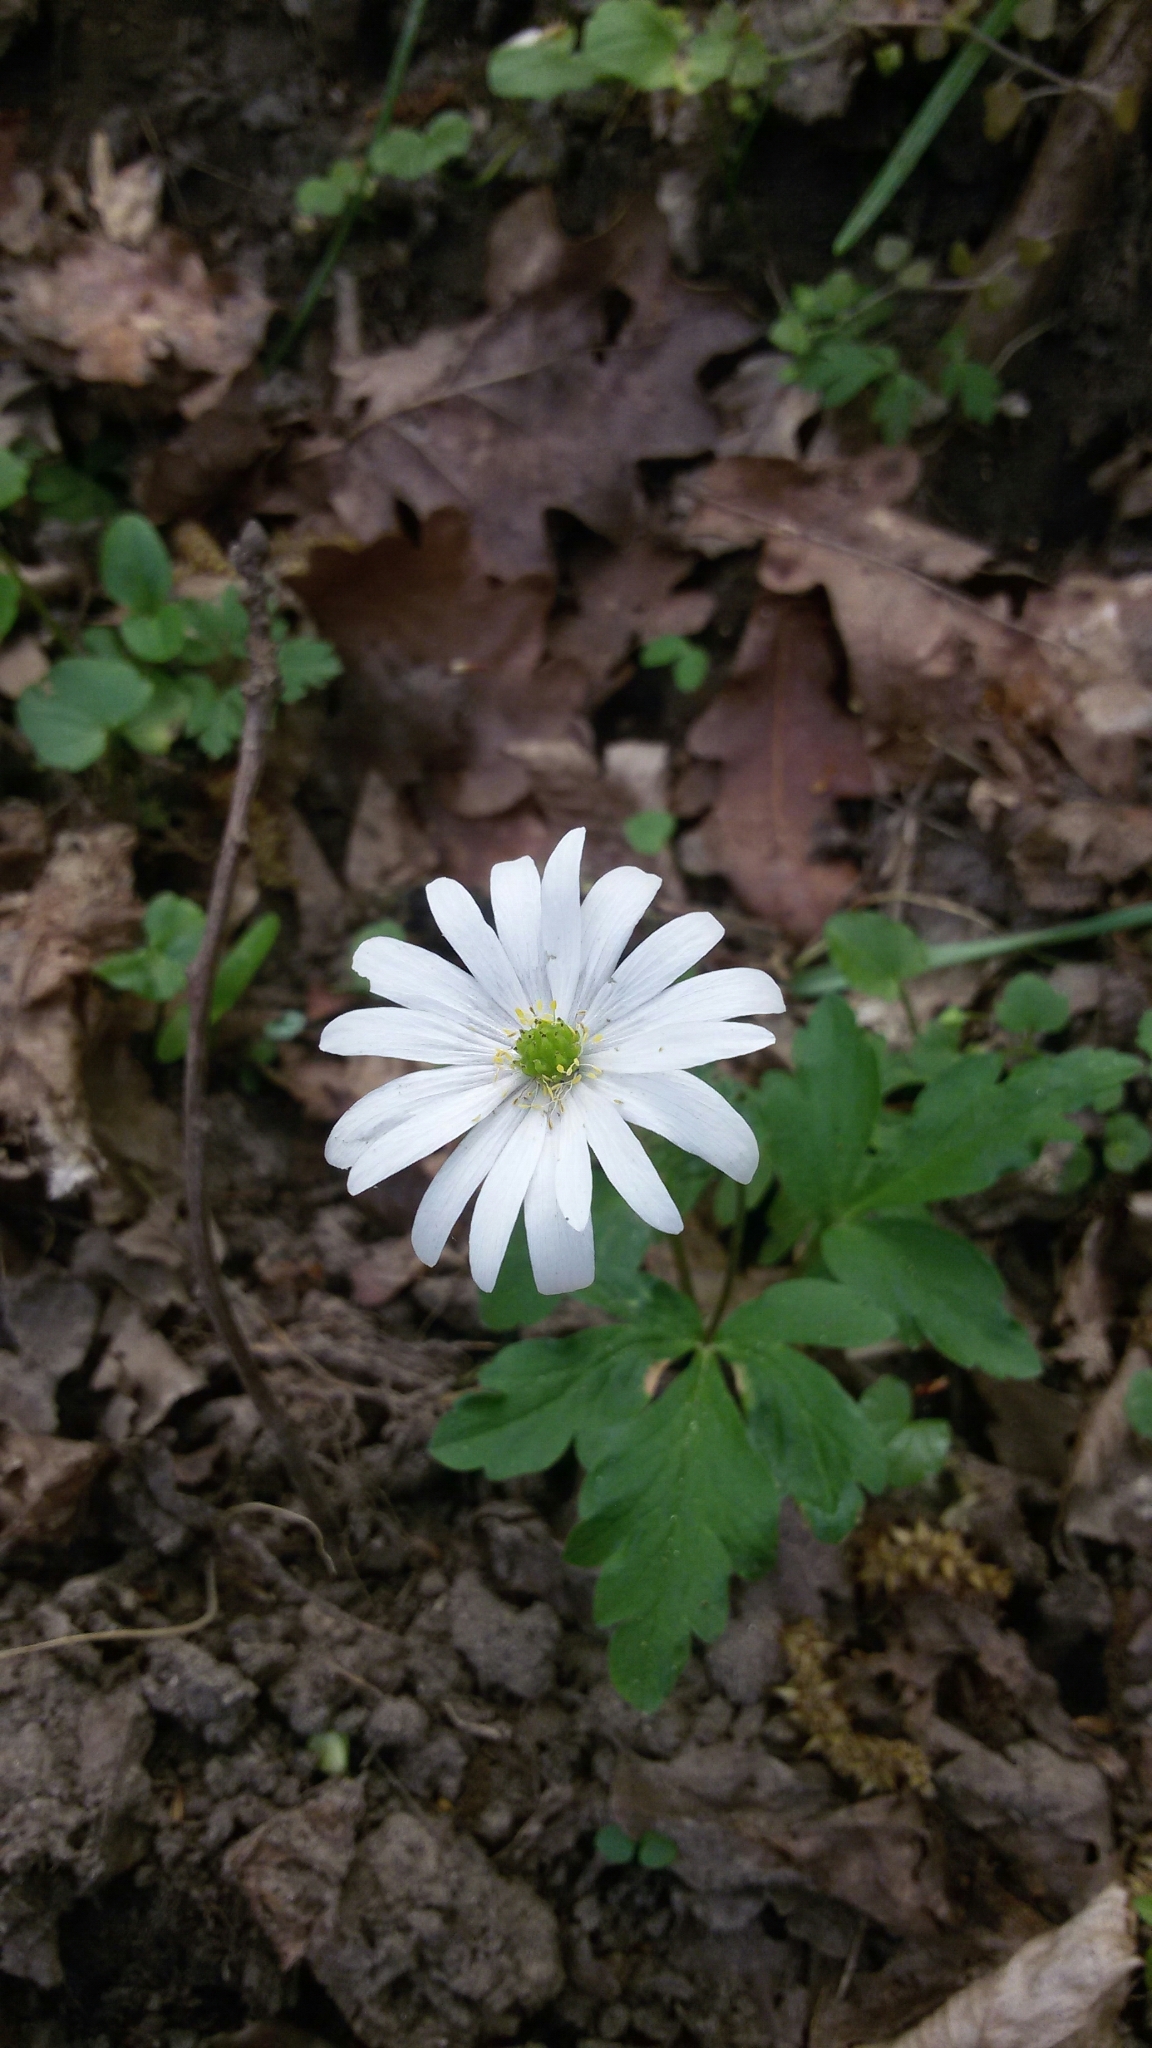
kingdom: Plantae
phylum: Tracheophyta
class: Magnoliopsida
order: Ranunculales
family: Ranunculaceae
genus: Anemone
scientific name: Anemone apennina
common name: Blue anemone
